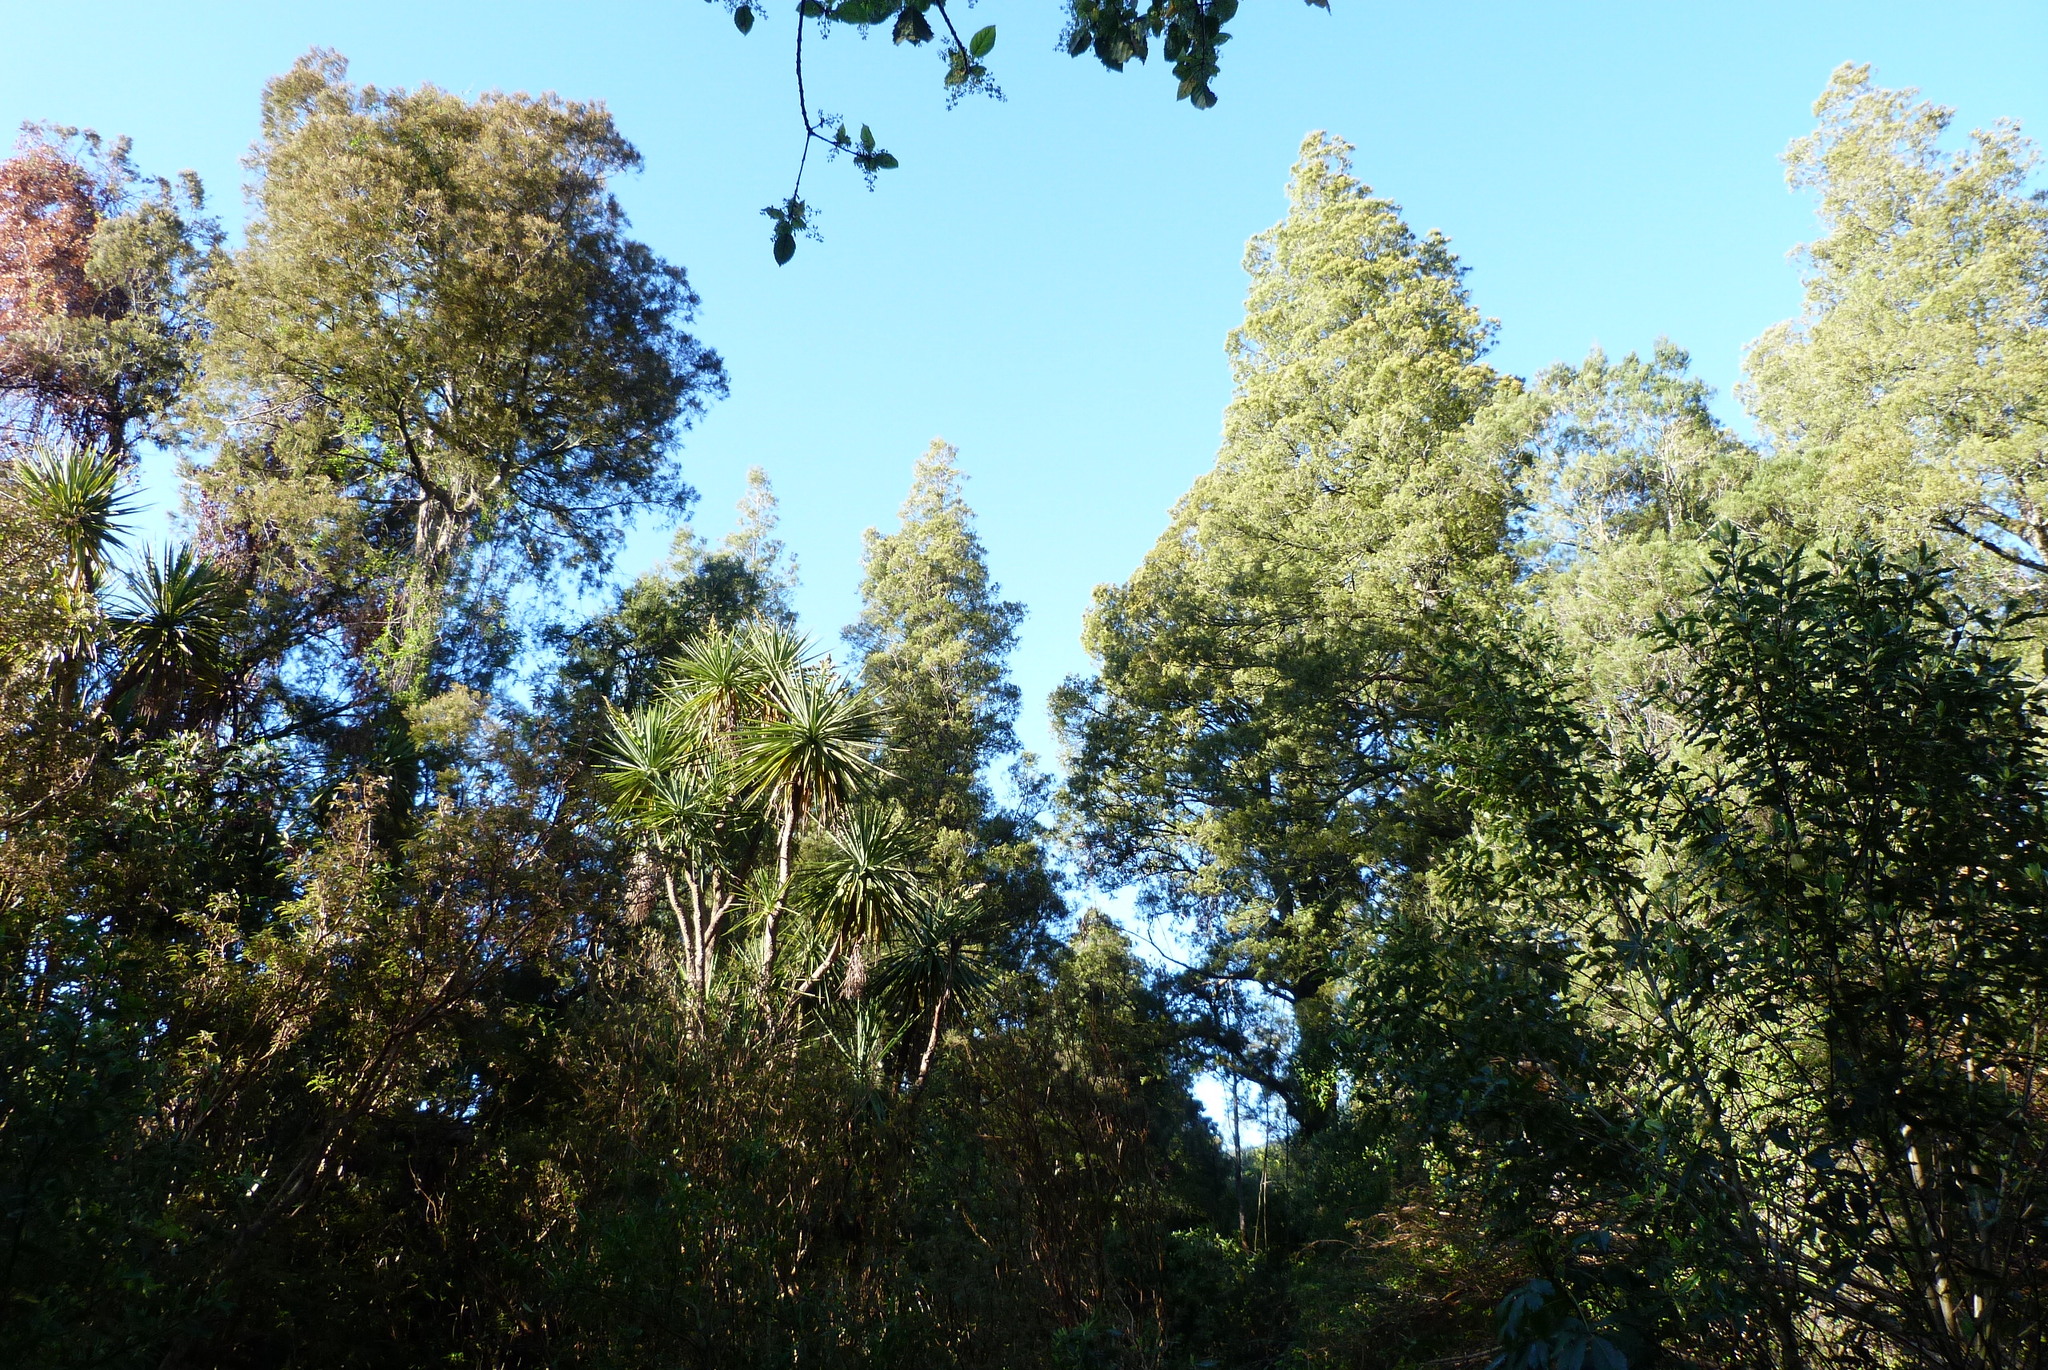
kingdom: Plantae
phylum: Tracheophyta
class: Pinopsida
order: Pinales
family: Podocarpaceae
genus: Dacrycarpus
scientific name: Dacrycarpus dacrydioides
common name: White pine
